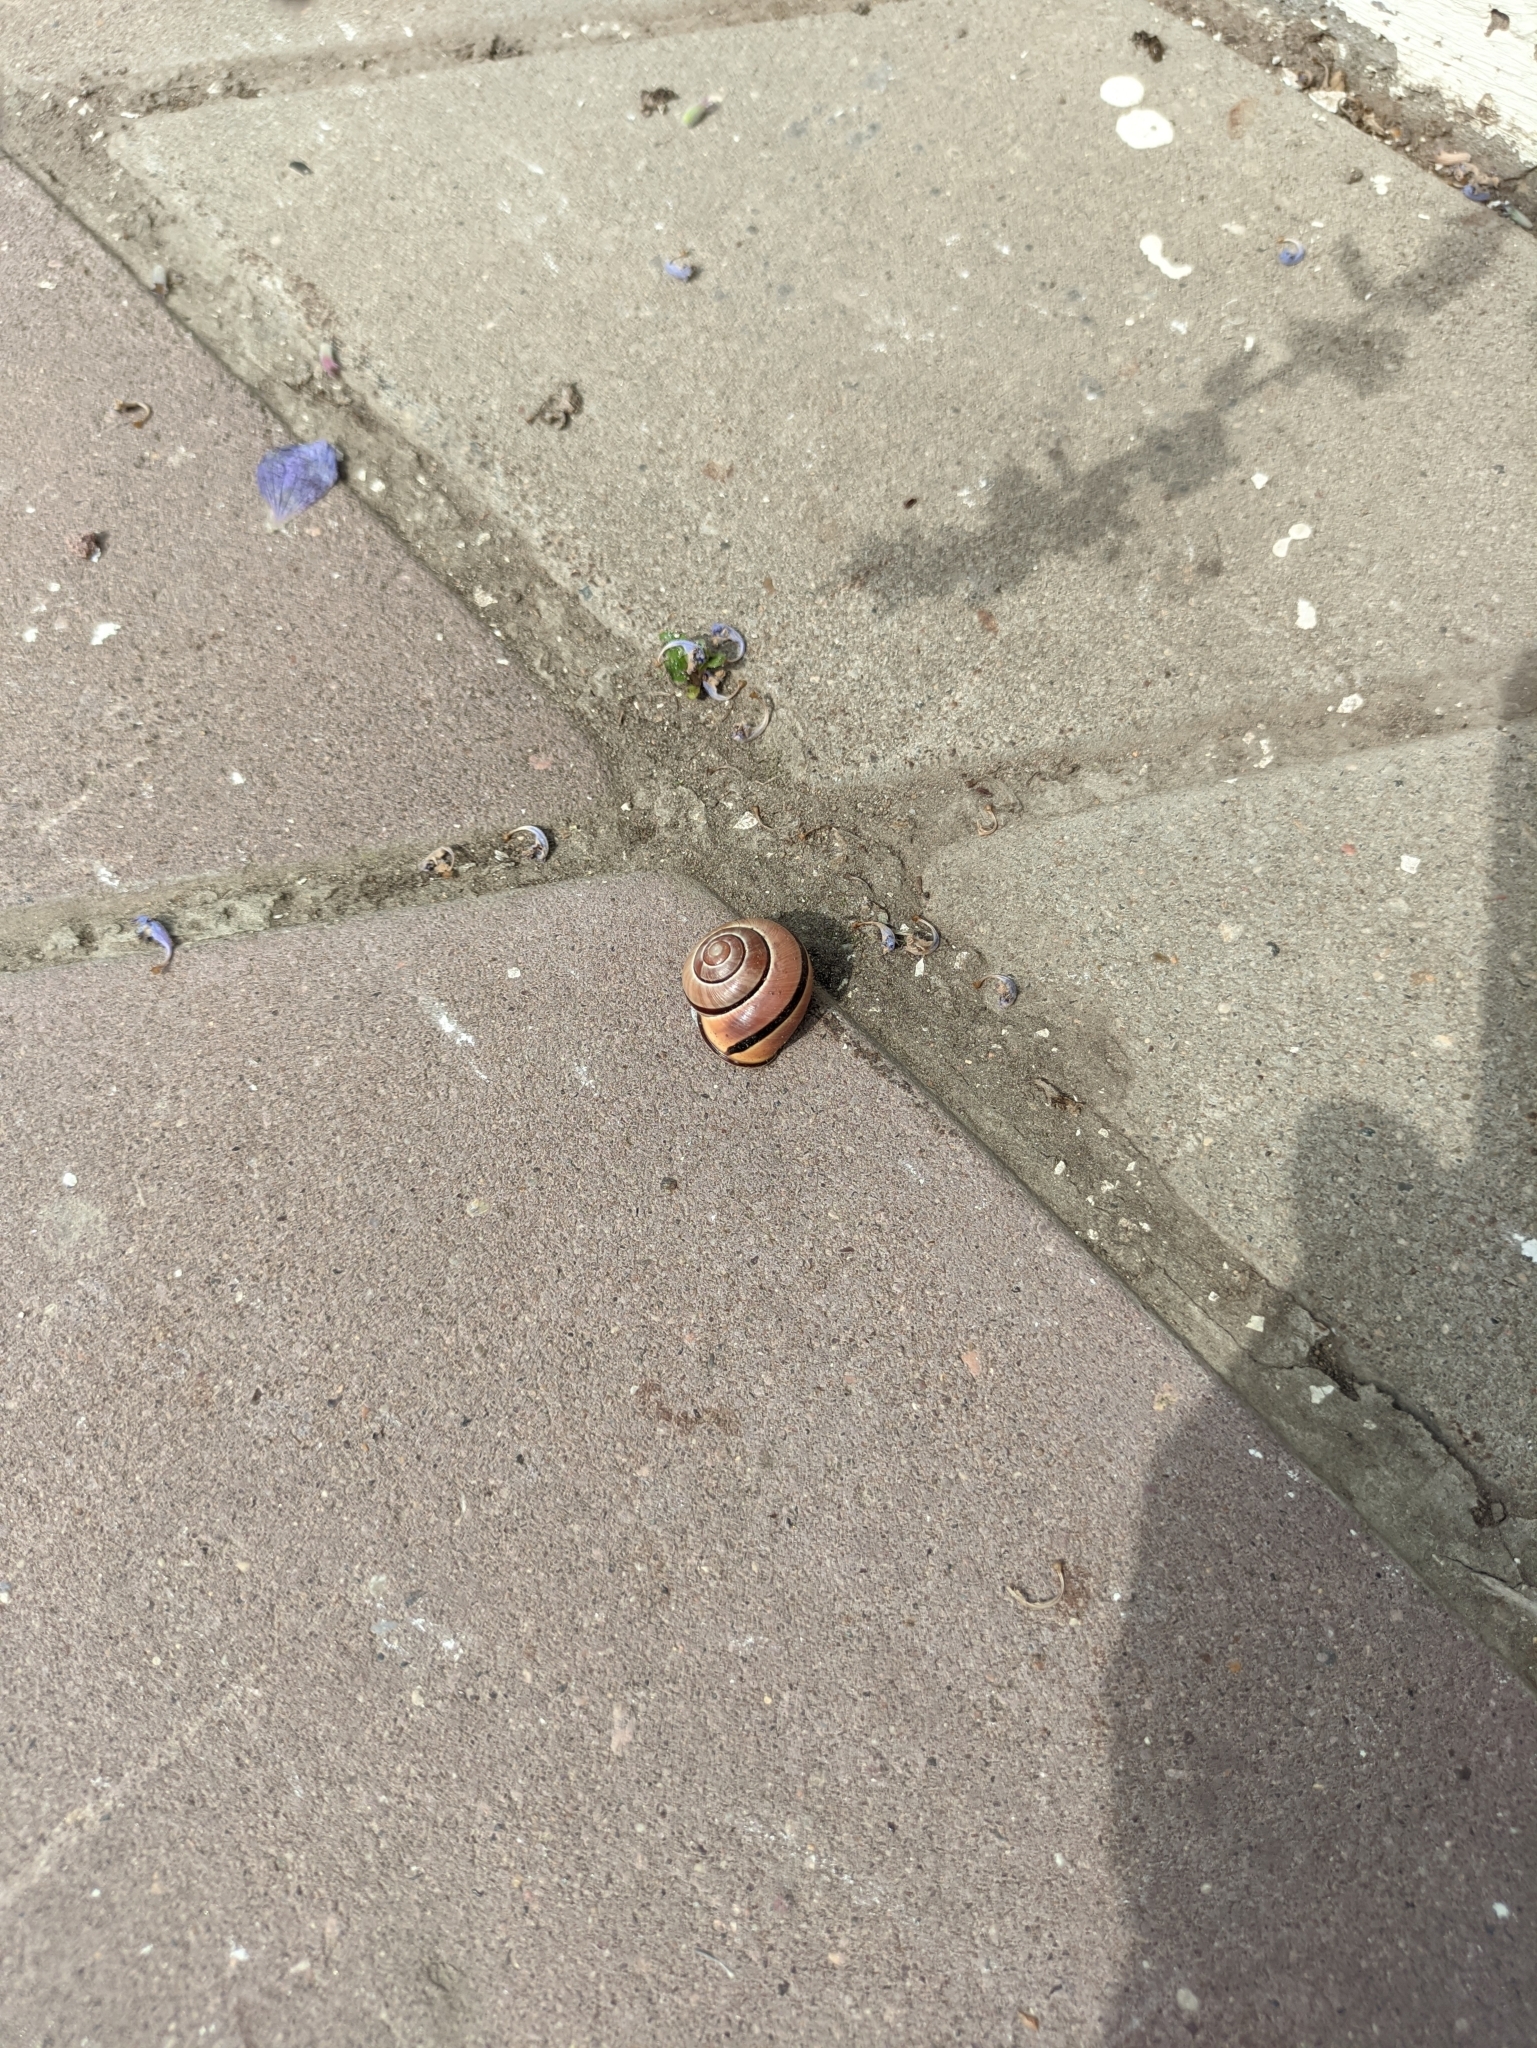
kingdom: Animalia
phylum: Mollusca
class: Gastropoda
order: Stylommatophora
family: Helicidae
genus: Cepaea
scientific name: Cepaea nemoralis
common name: Grovesnail
